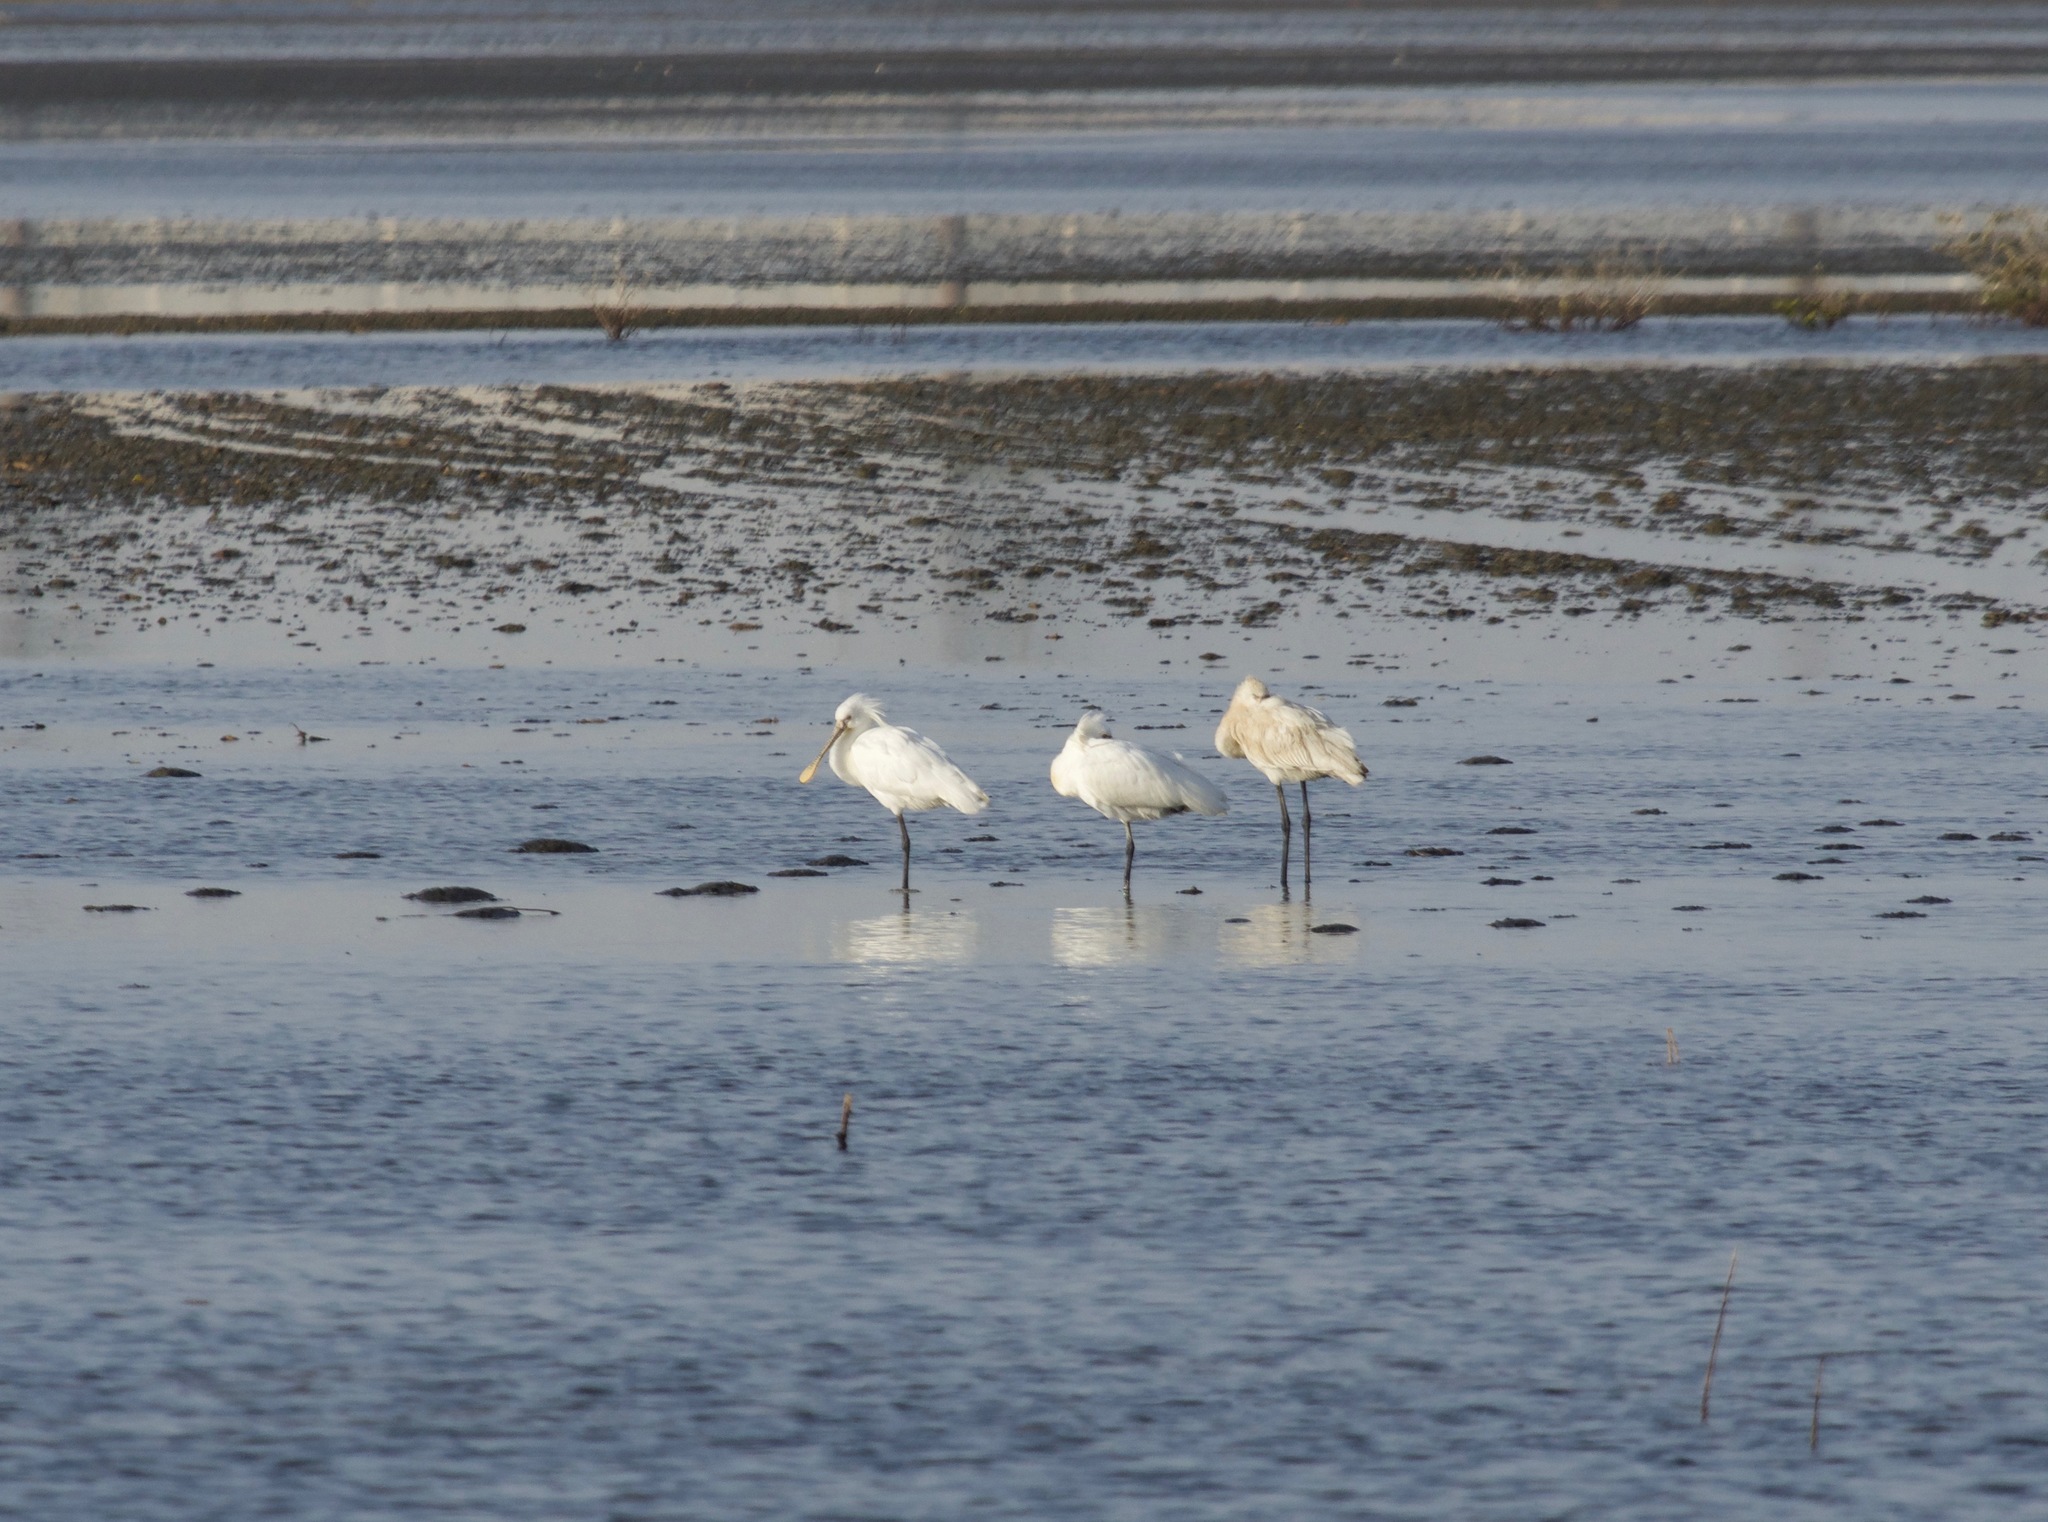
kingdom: Animalia
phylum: Chordata
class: Aves
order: Pelecaniformes
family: Threskiornithidae
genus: Platalea
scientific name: Platalea leucorodia
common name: Eurasian spoonbill
